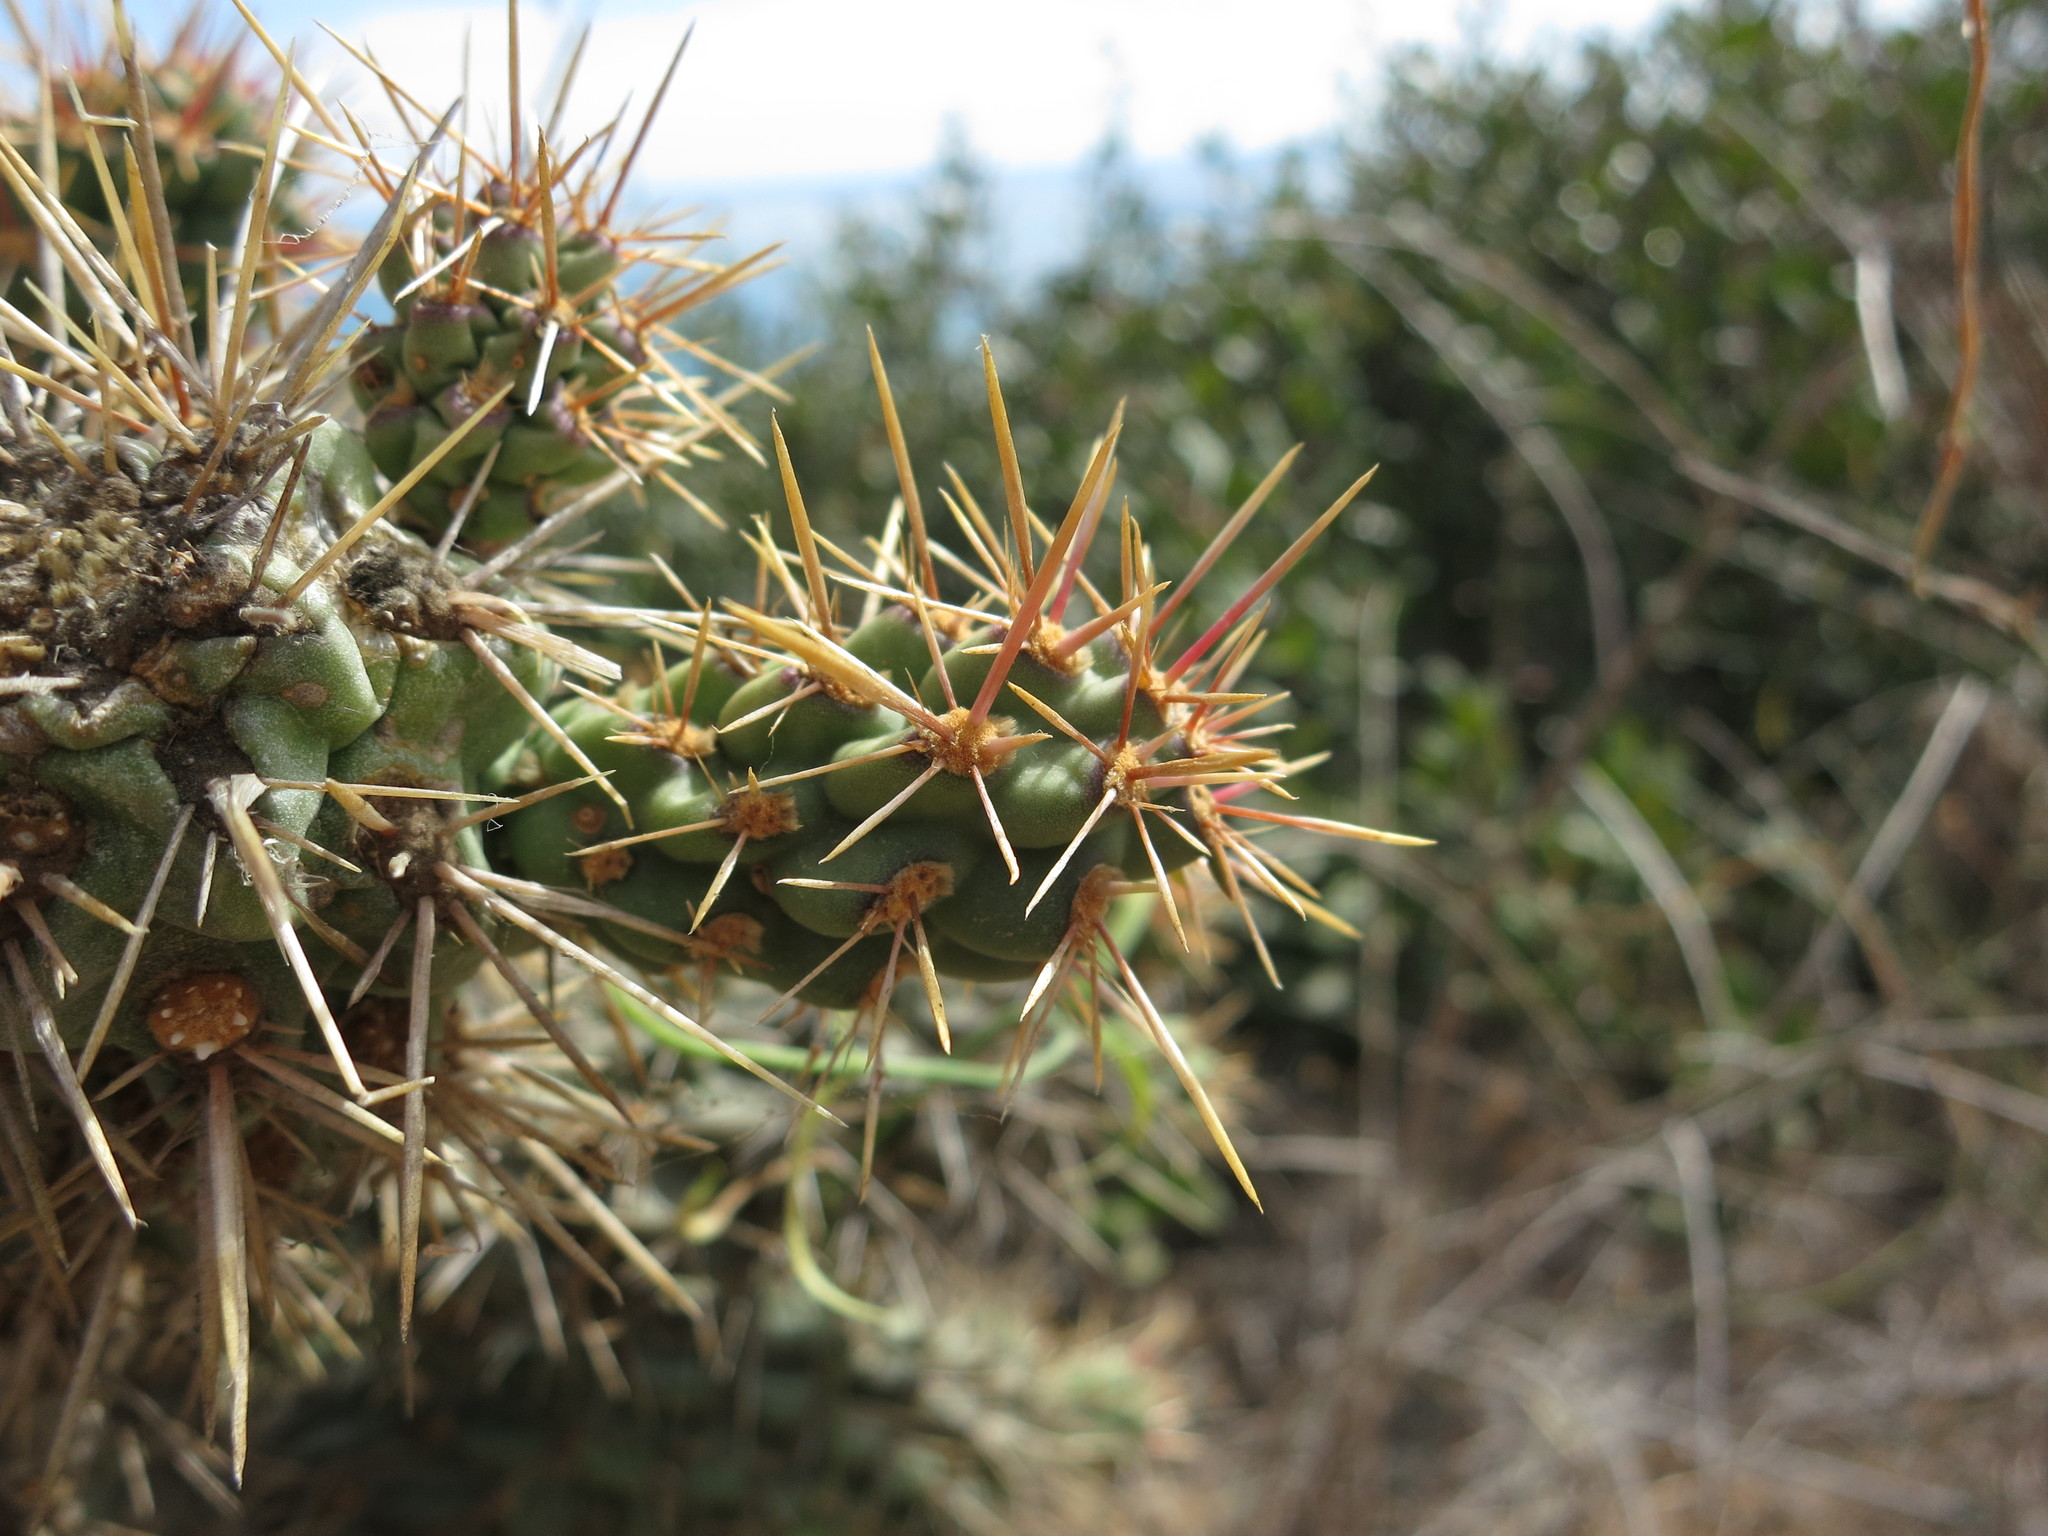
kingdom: Plantae
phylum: Tracheophyta
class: Magnoliopsida
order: Caryophyllales
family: Cactaceae
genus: Cylindropuntia
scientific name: Cylindropuntia prolifera
